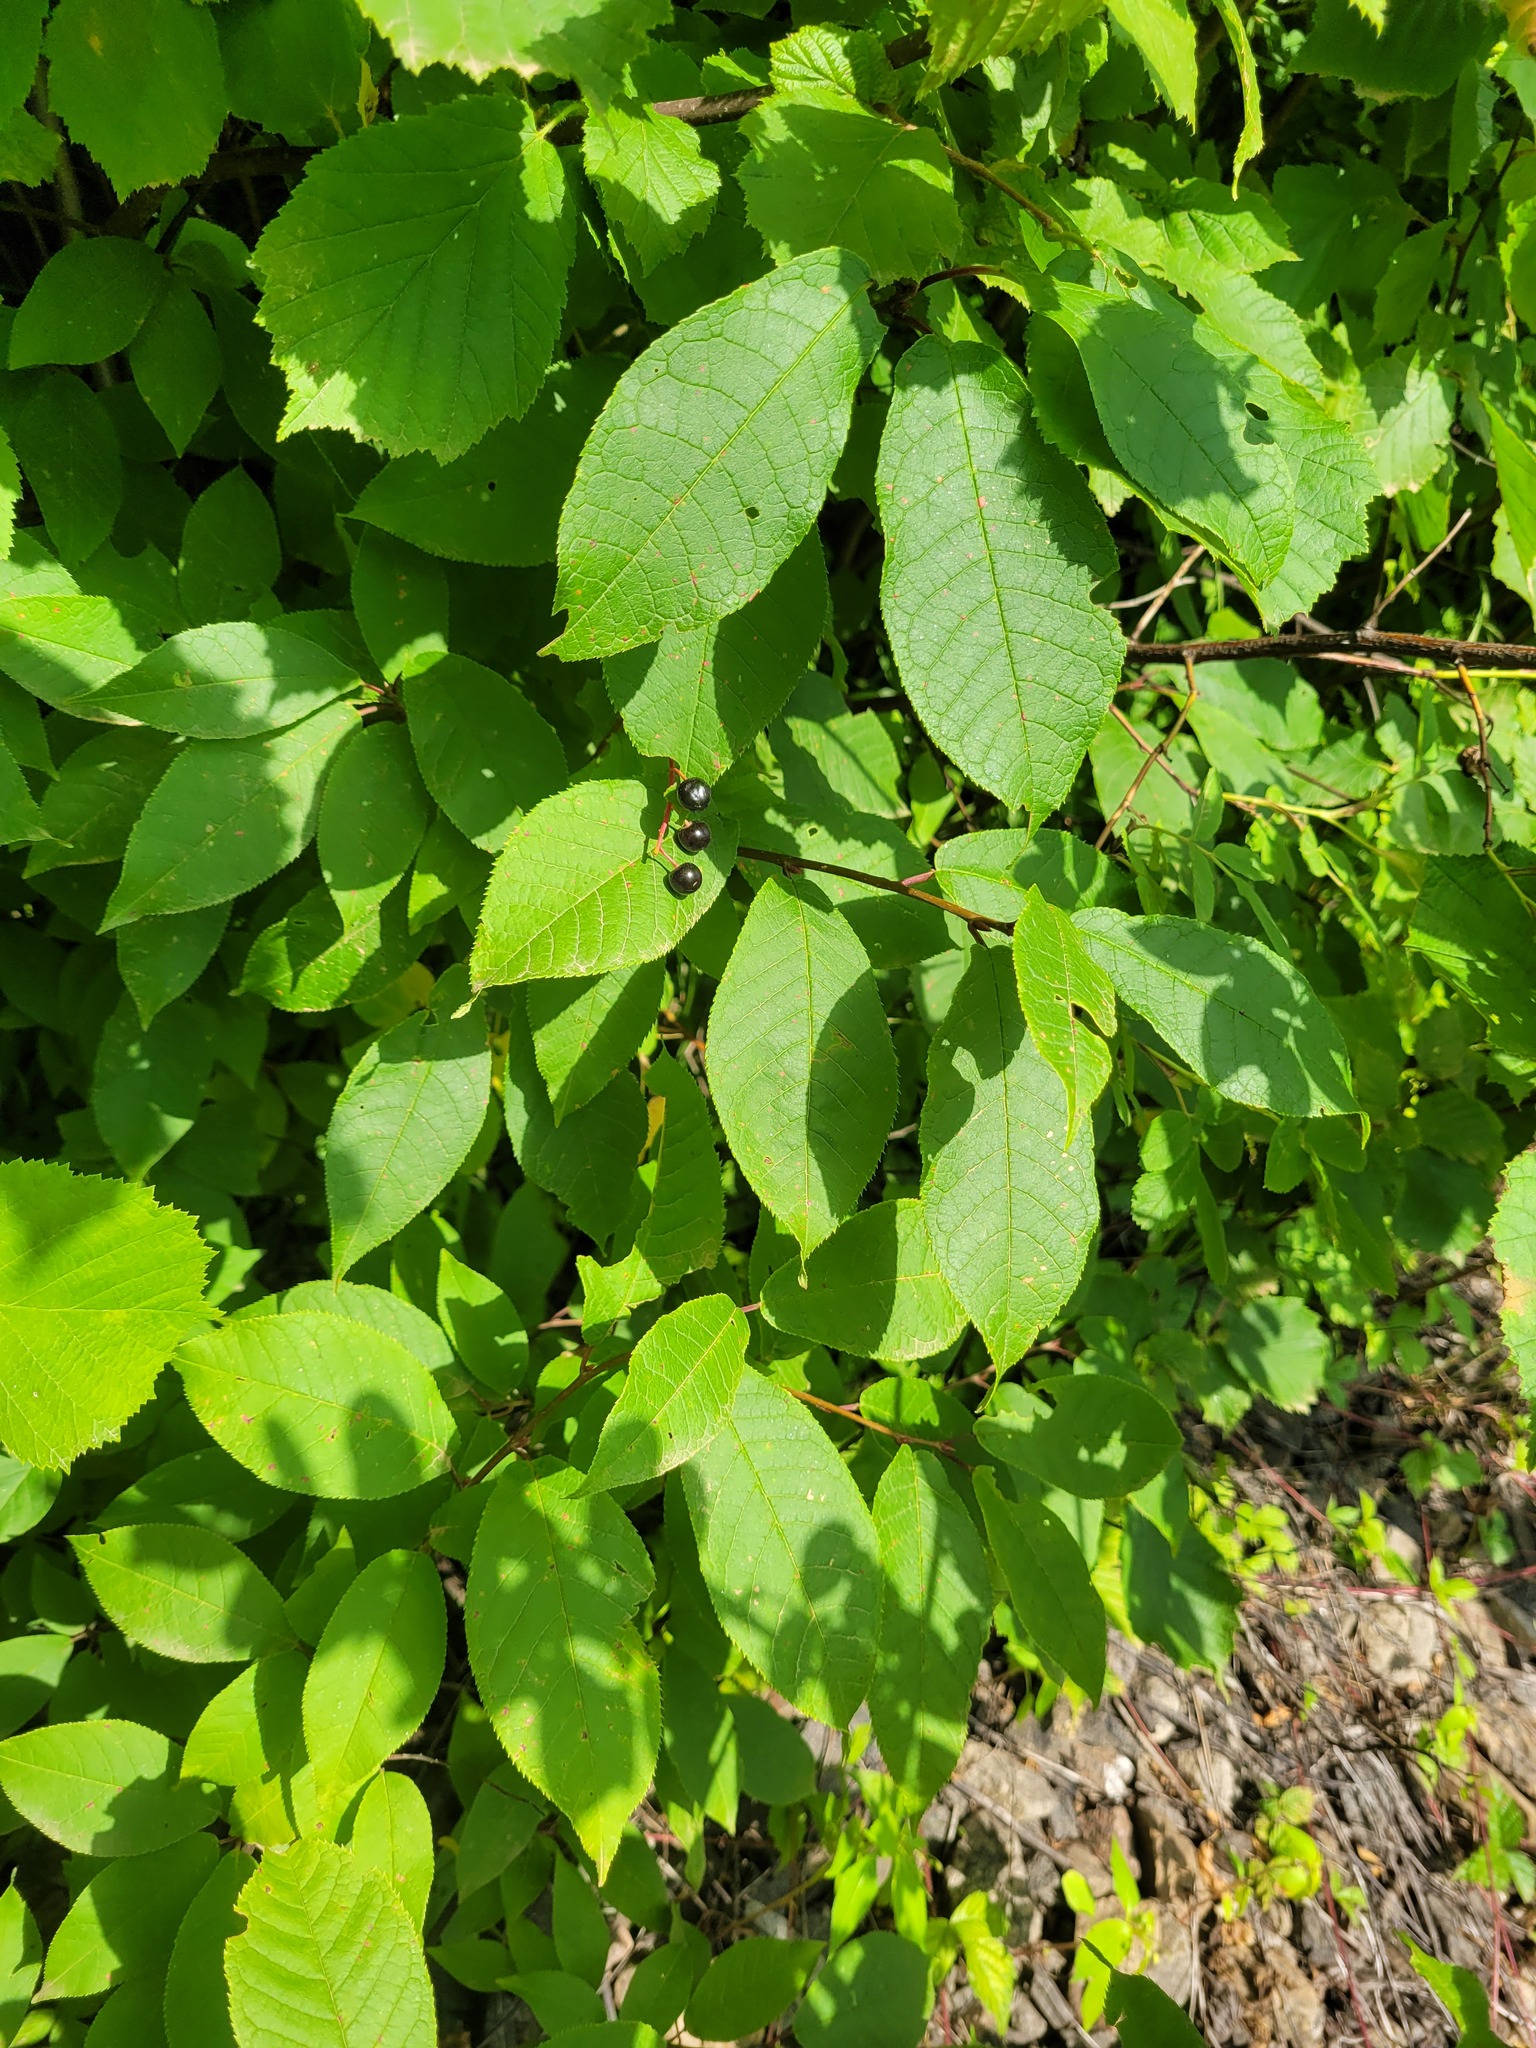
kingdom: Plantae
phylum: Tracheophyta
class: Magnoliopsida
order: Rosales
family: Rosaceae
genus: Prunus
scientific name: Prunus padus
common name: Bird cherry
